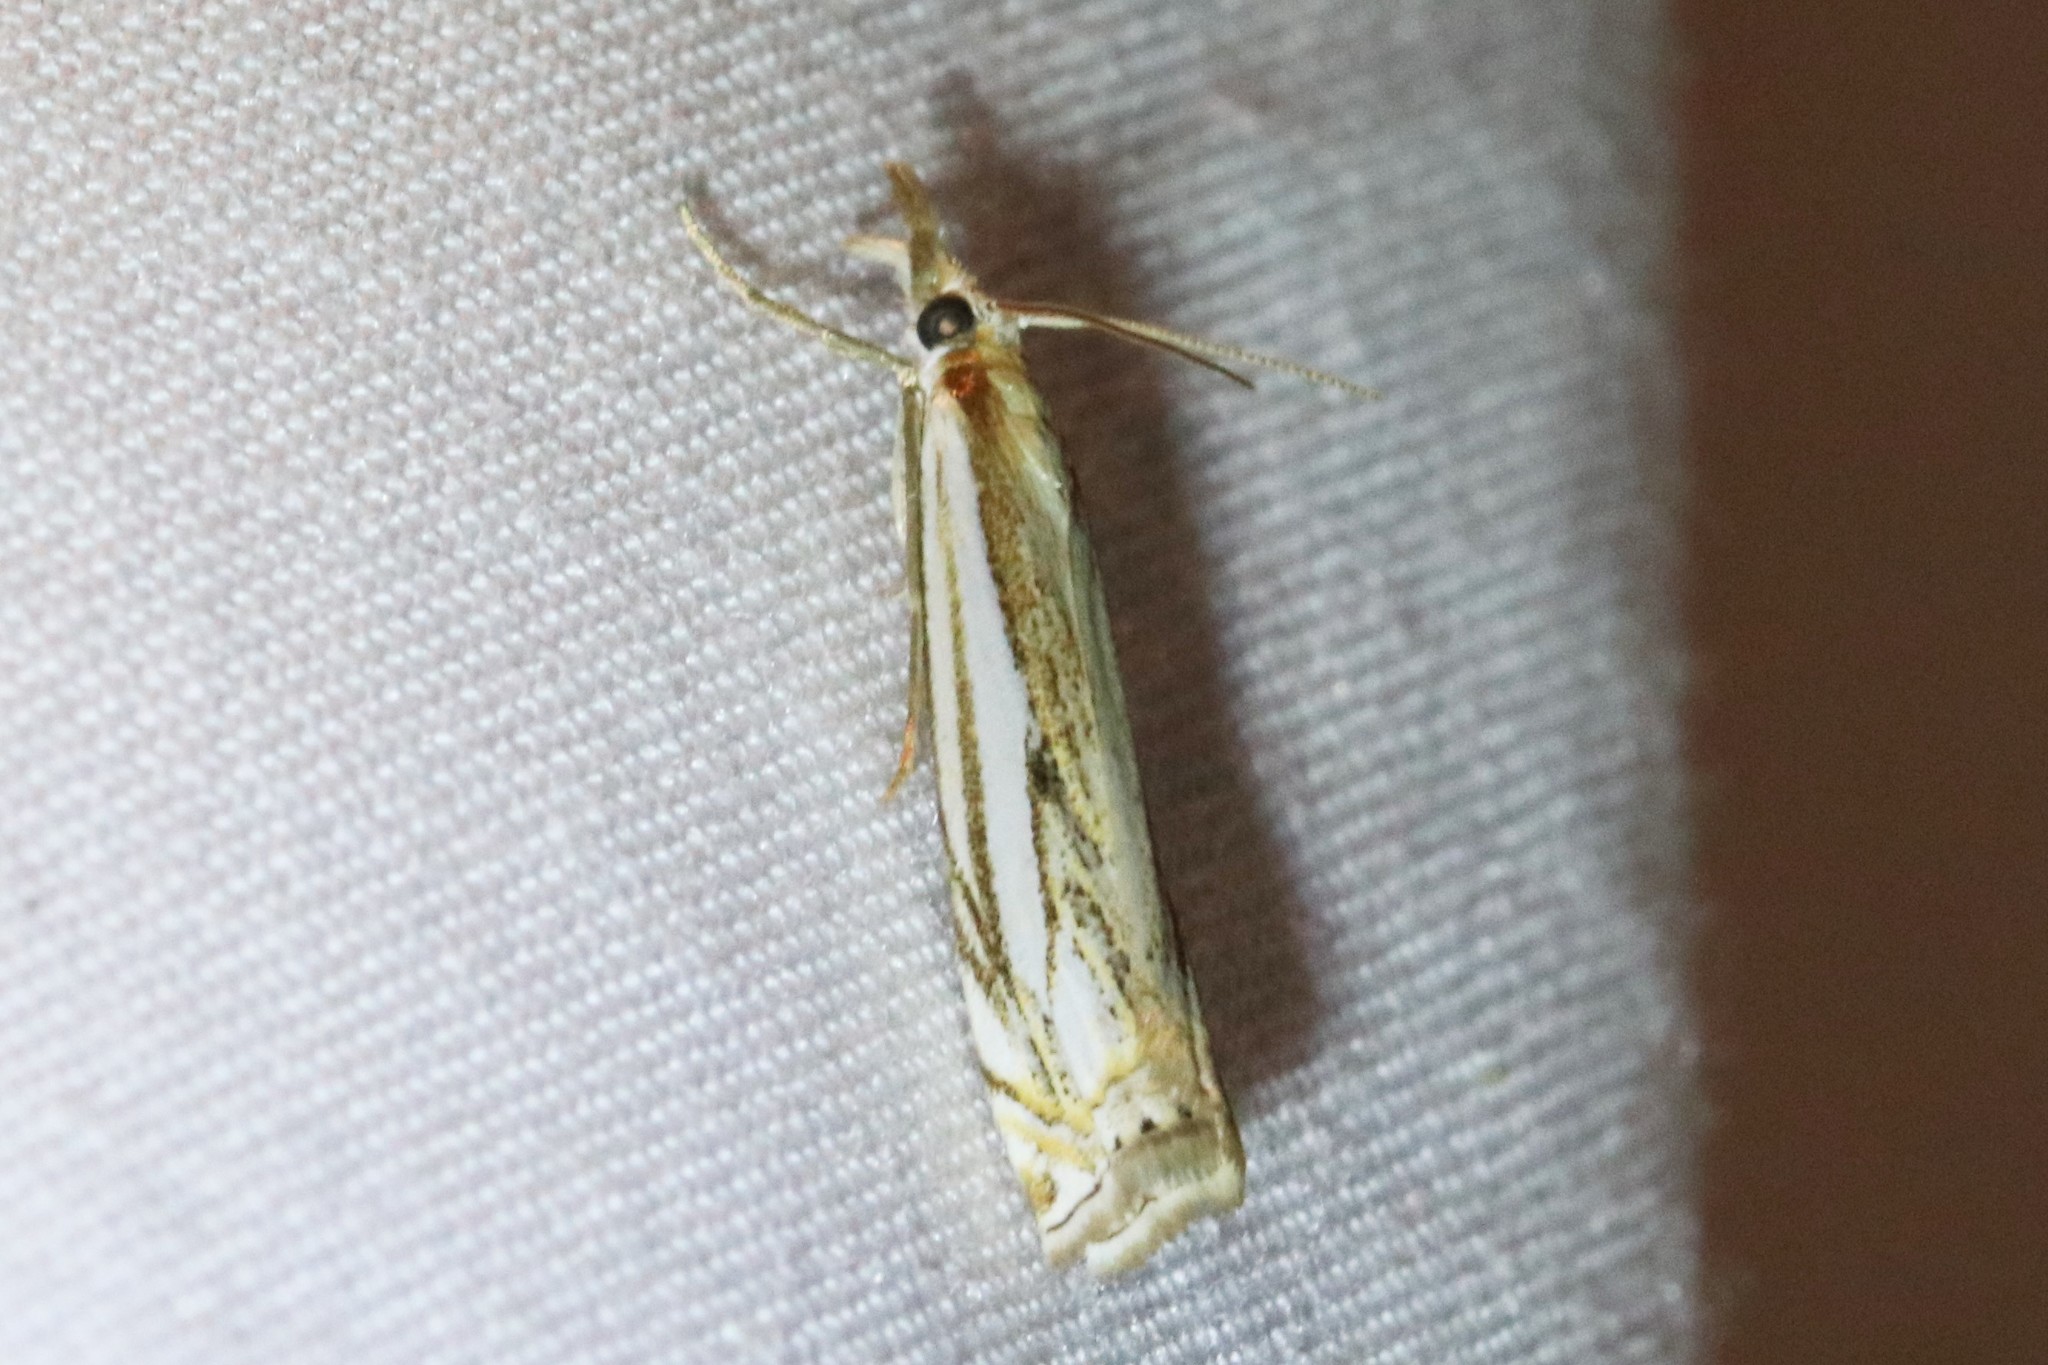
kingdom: Animalia
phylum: Arthropoda
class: Insecta
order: Lepidoptera
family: Crambidae
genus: Crambus
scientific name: Crambus saltuellus
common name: Pasture grass-veneer
